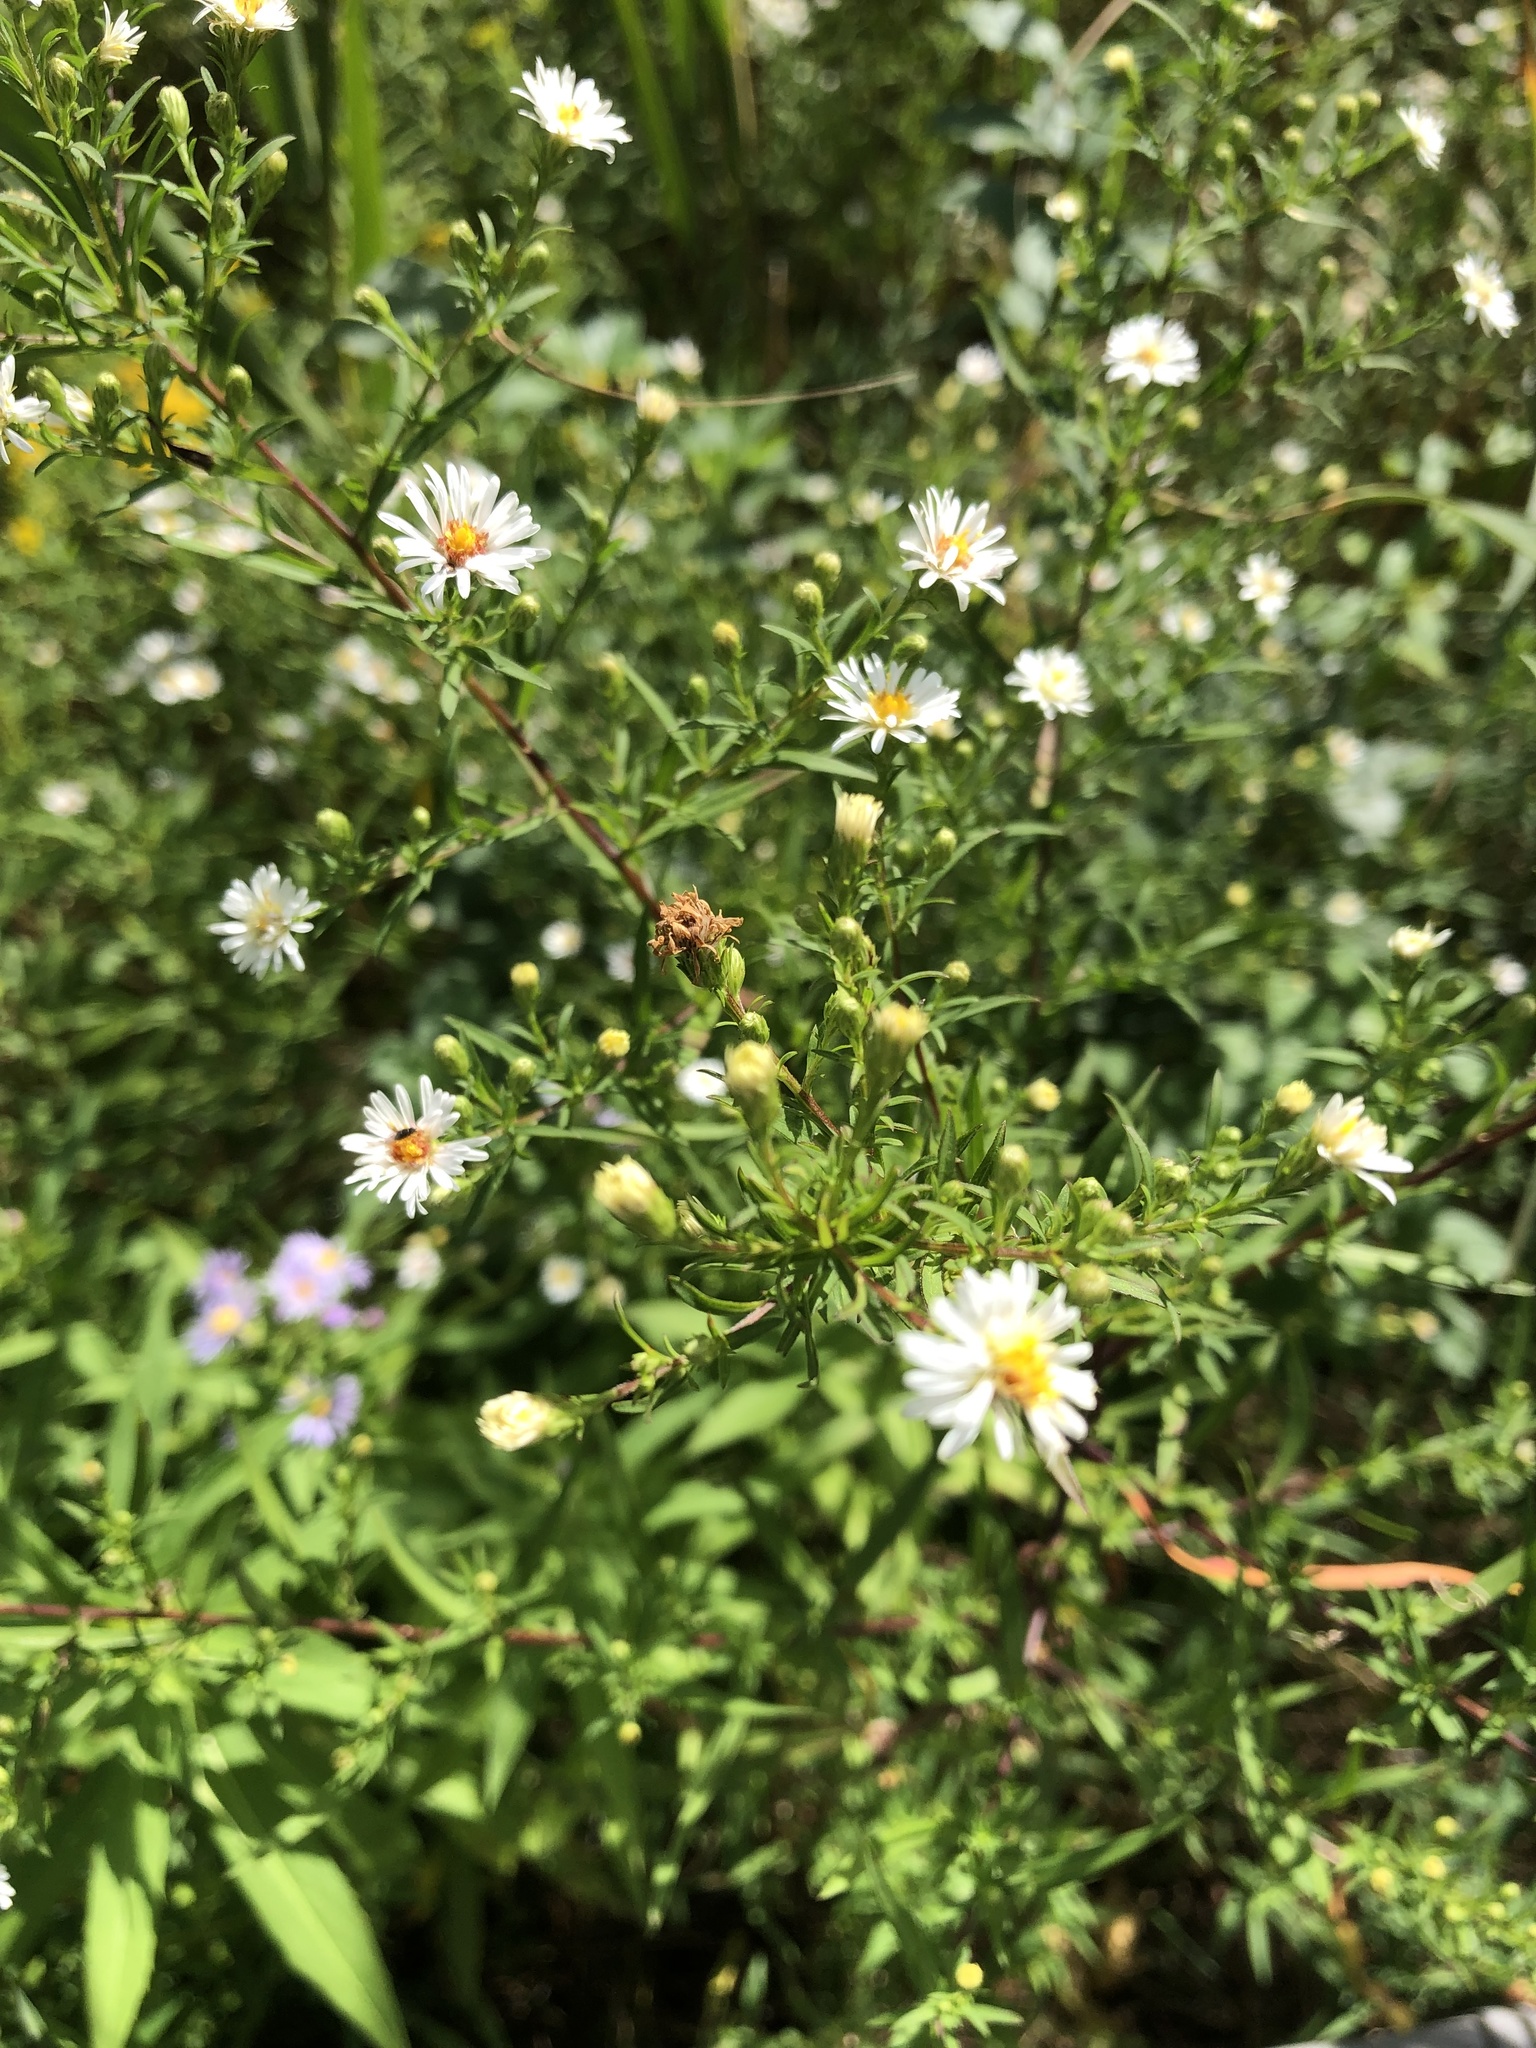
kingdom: Plantae
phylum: Tracheophyta
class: Magnoliopsida
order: Asterales
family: Asteraceae
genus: Symphyotrichum
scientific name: Symphyotrichum lanceolatum
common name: Panicled aster
